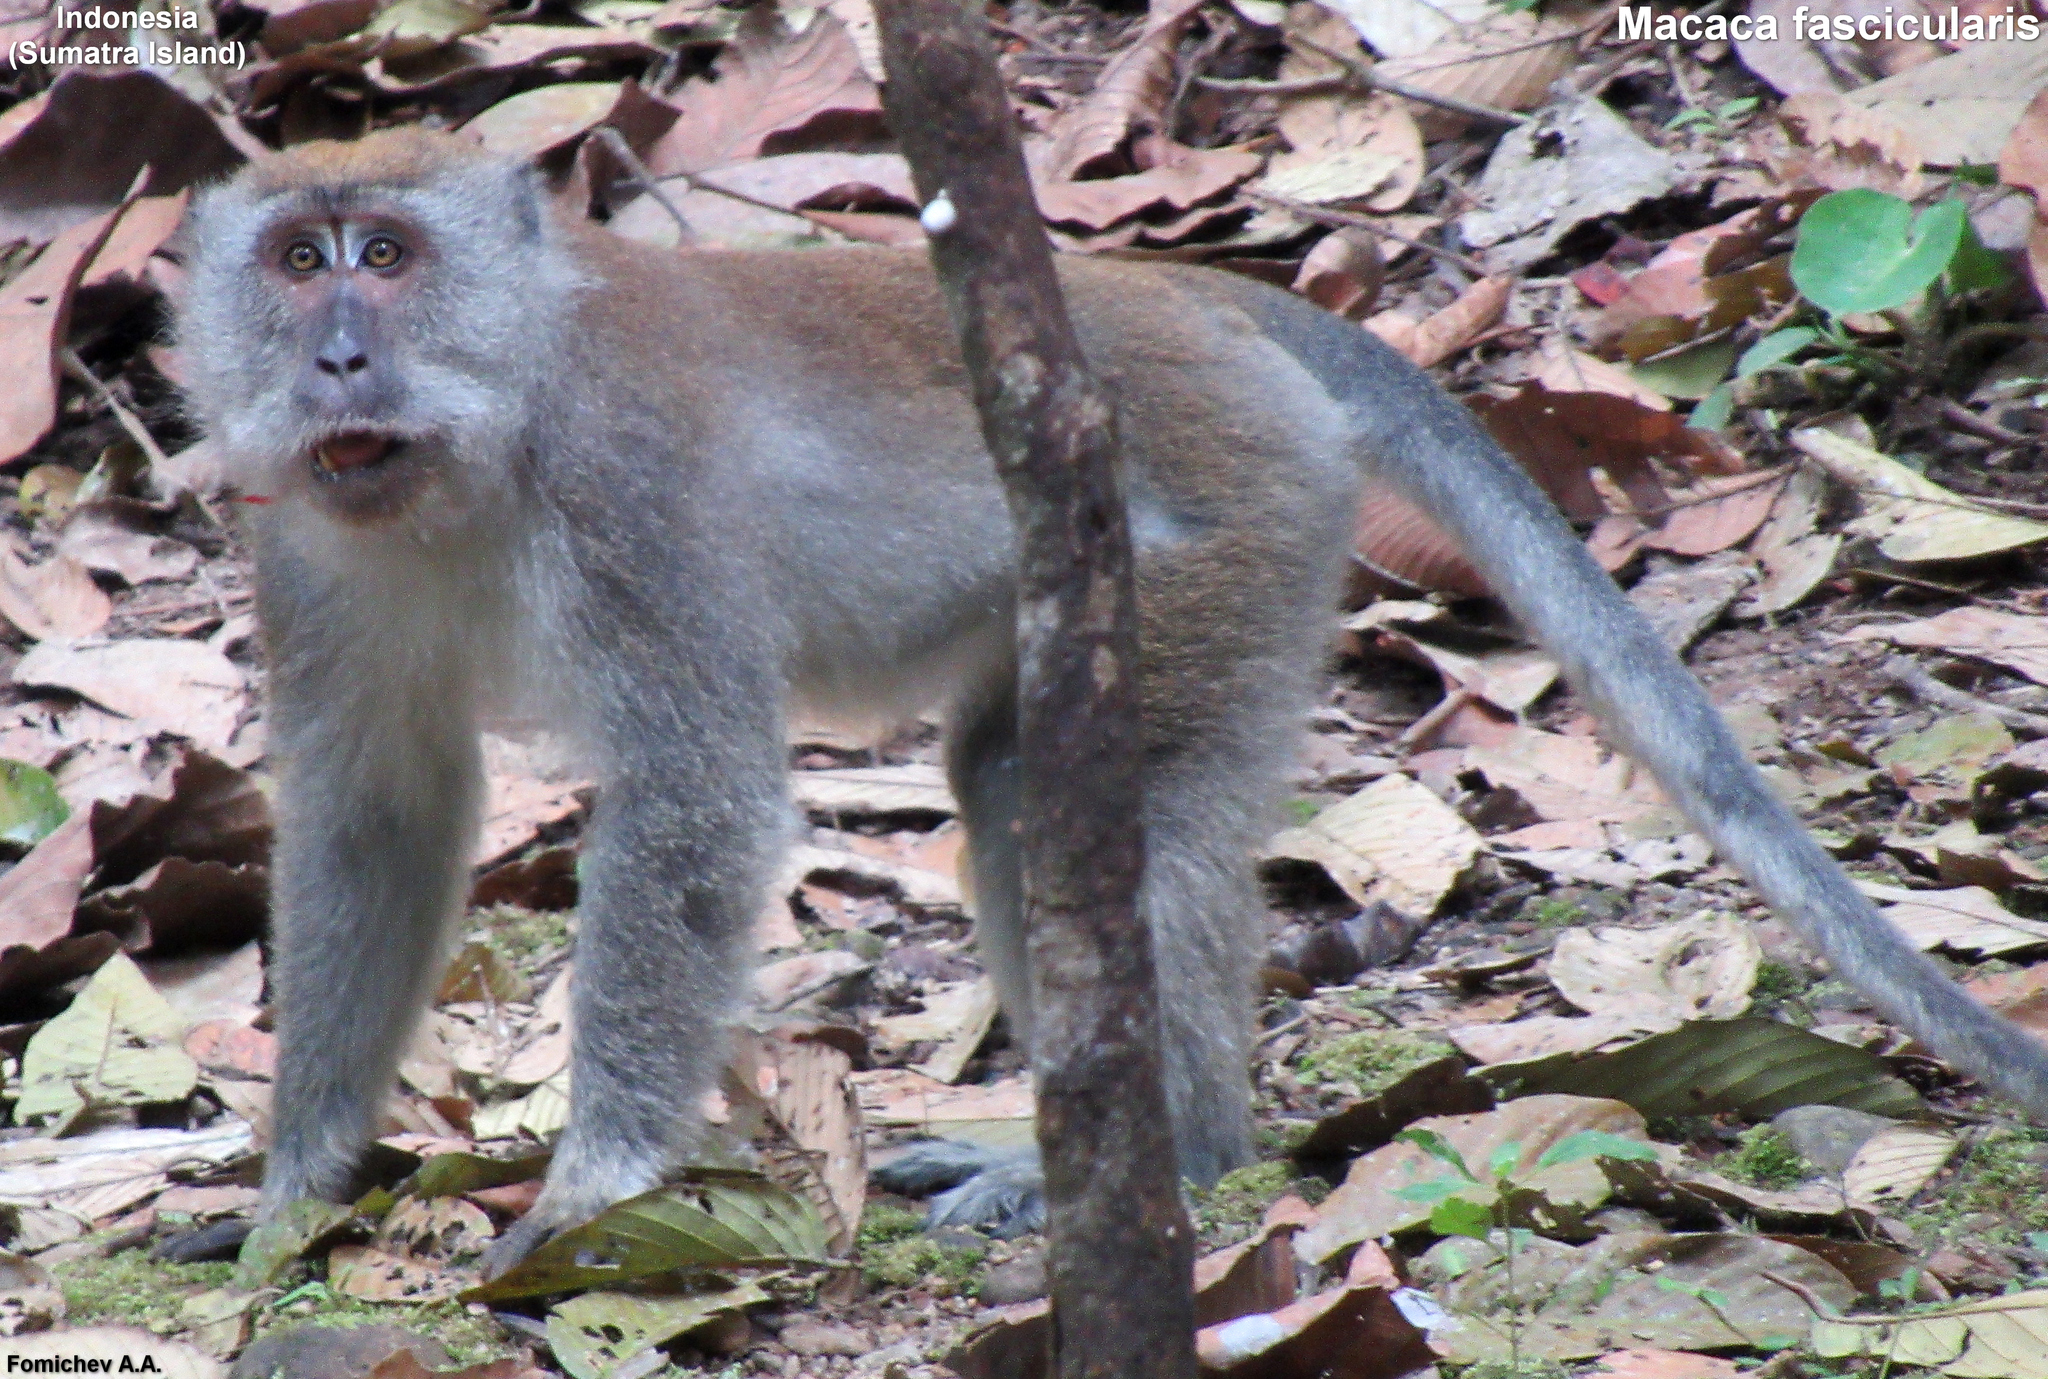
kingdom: Animalia
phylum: Chordata
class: Mammalia
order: Primates
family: Cercopithecidae
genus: Macaca
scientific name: Macaca fascicularis
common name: Crab-eating macaque
